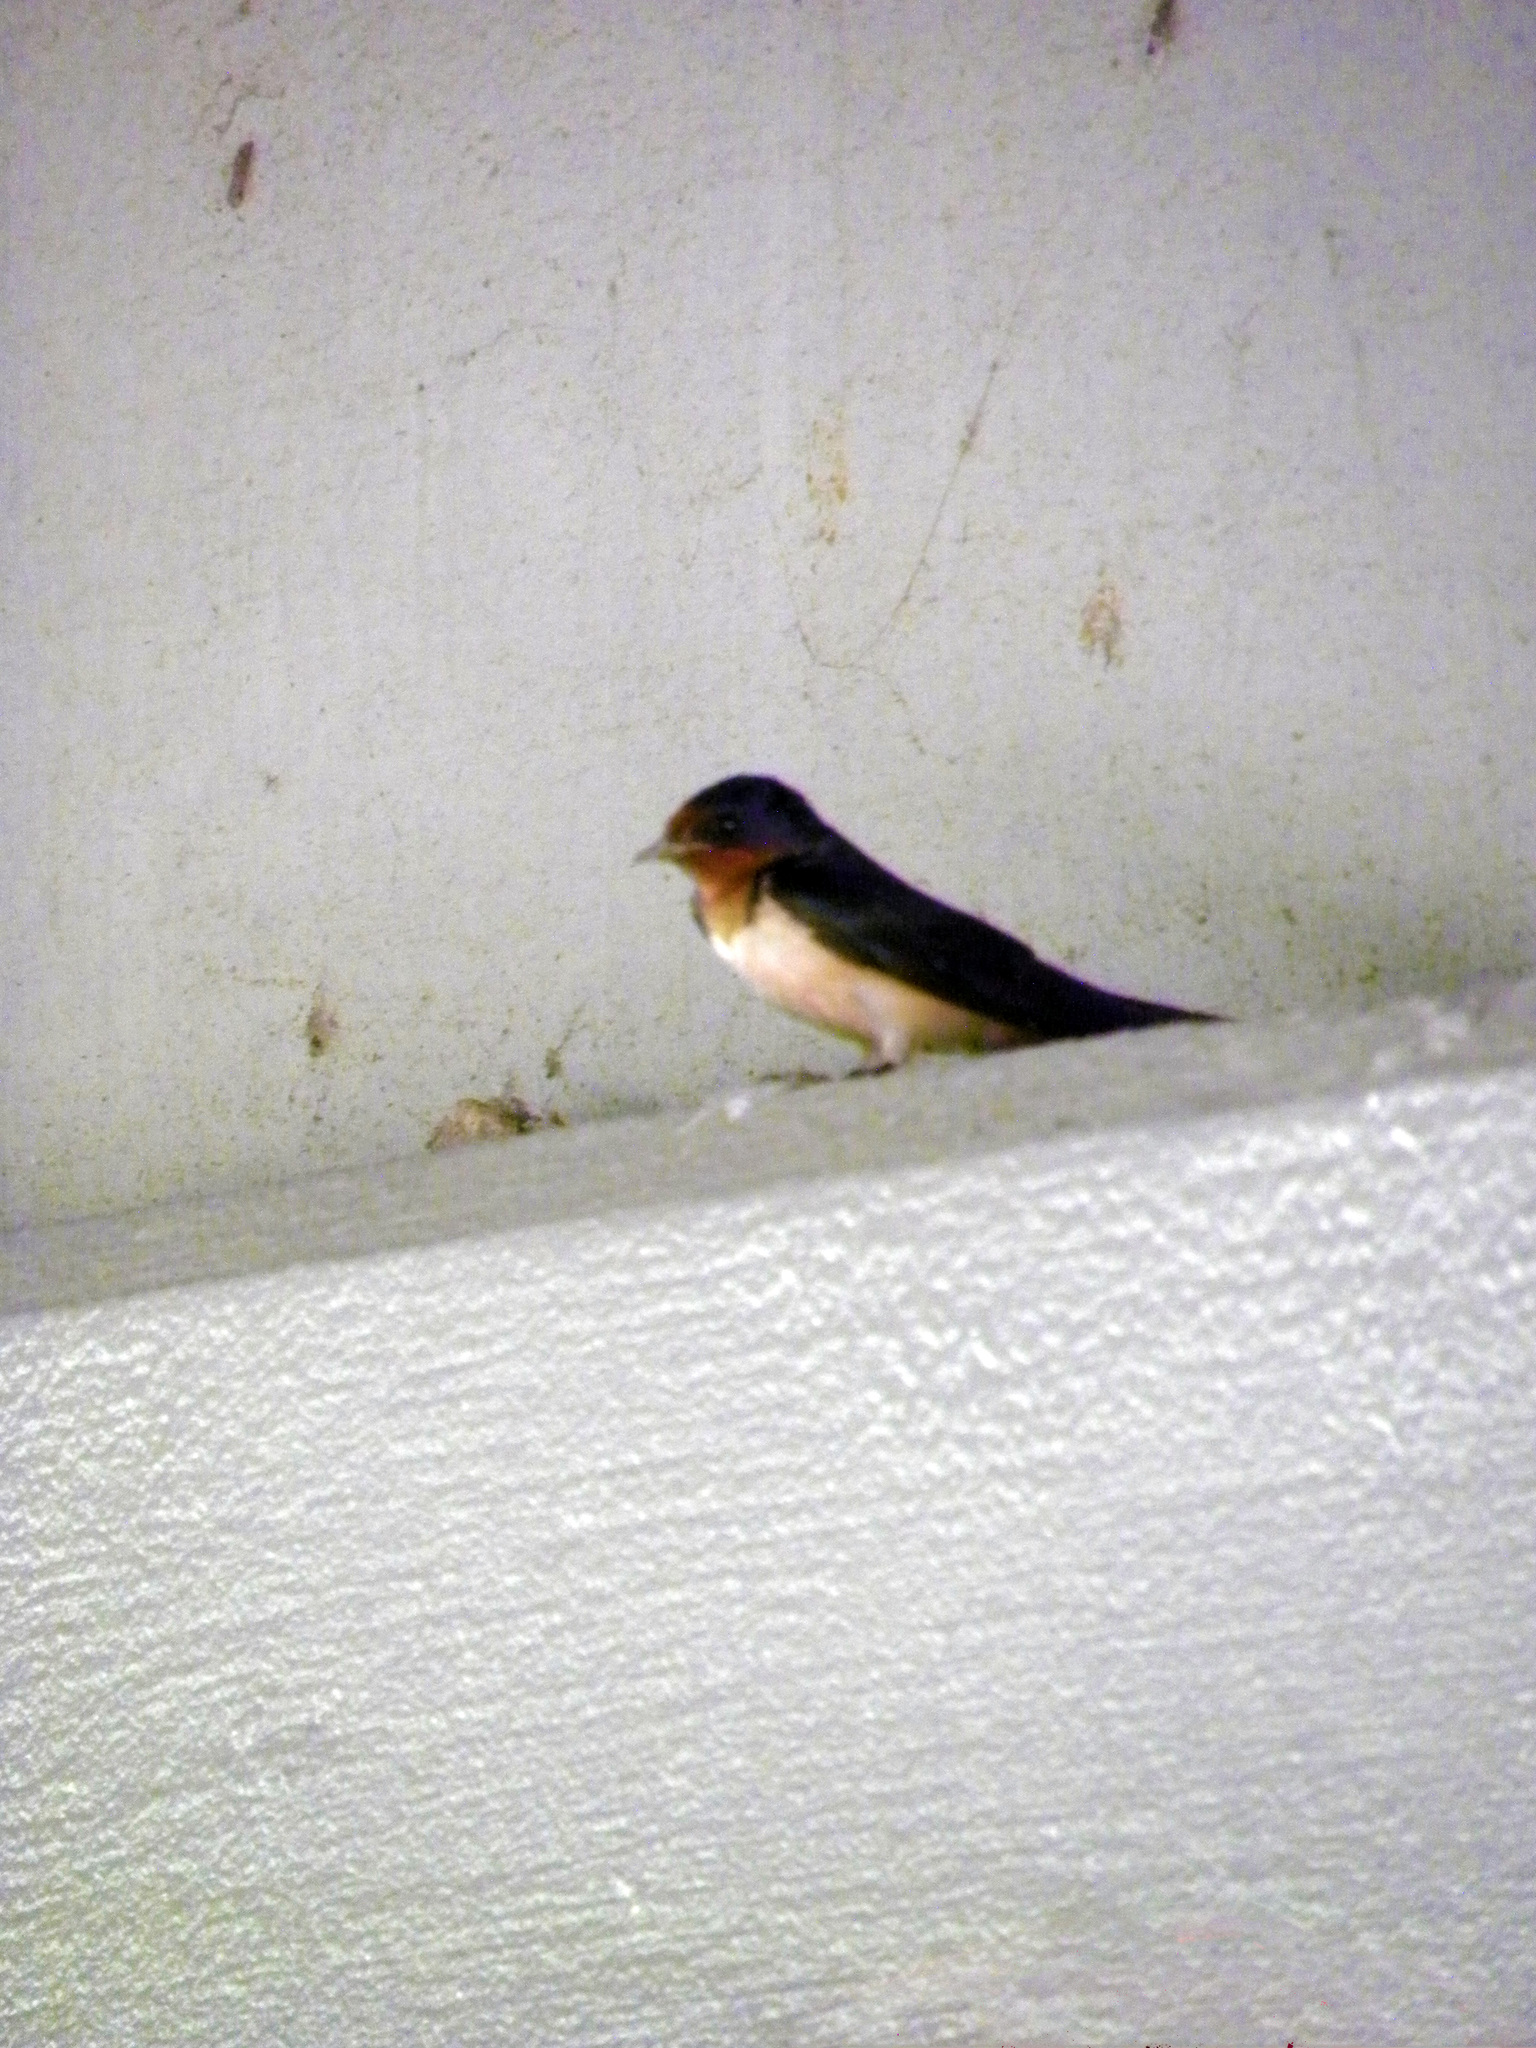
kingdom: Animalia
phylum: Chordata
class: Aves
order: Passeriformes
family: Hirundinidae
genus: Hirundo
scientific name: Hirundo rustica
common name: Barn swallow
